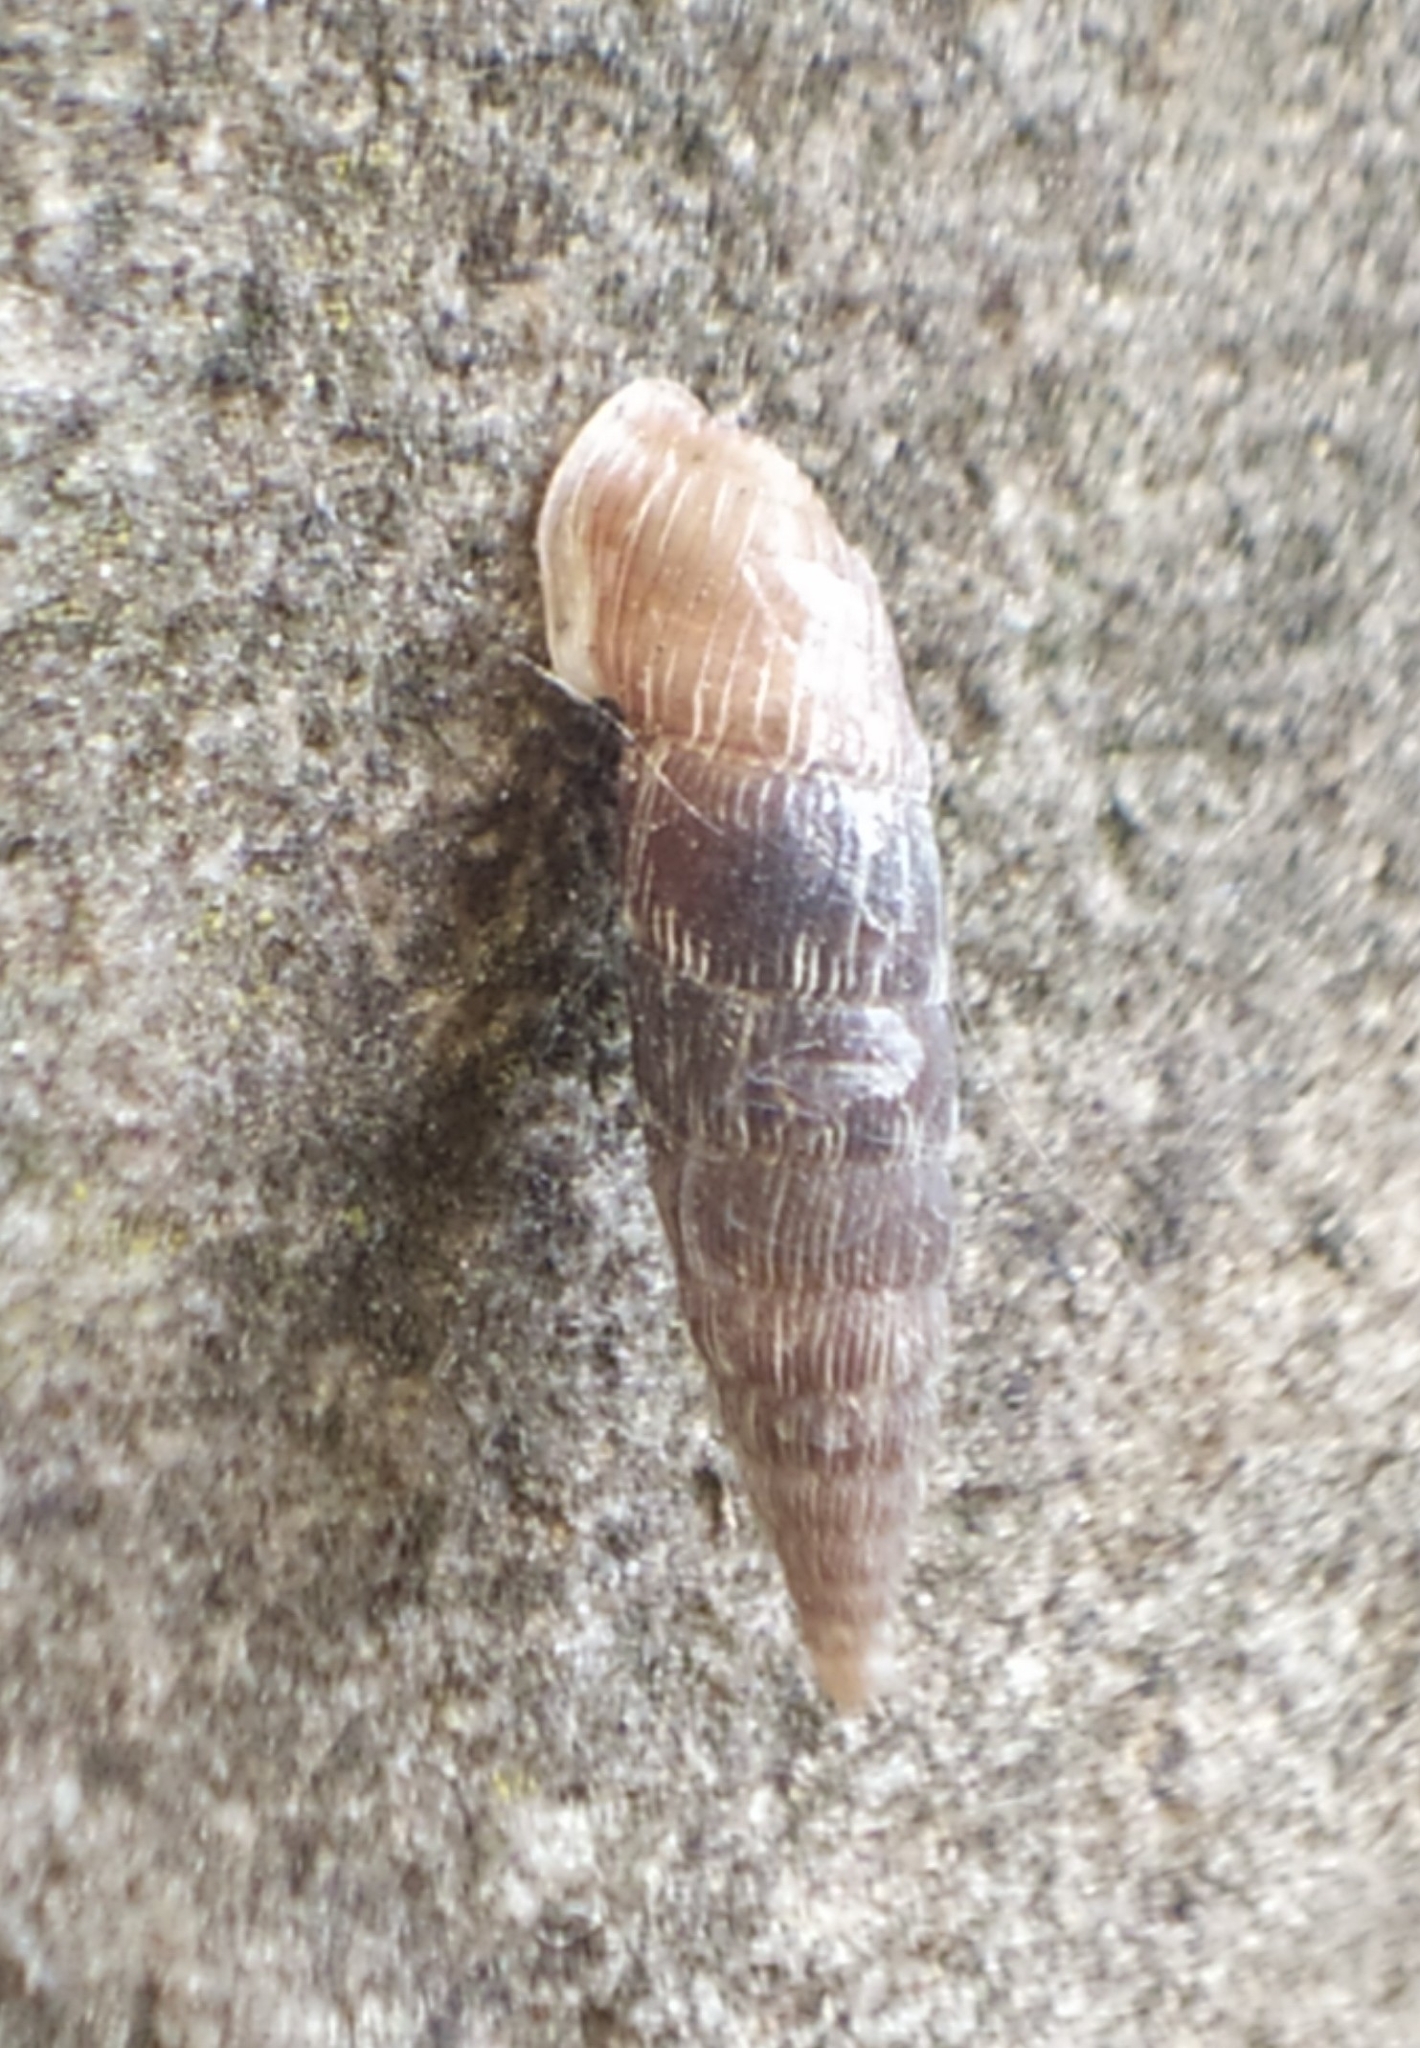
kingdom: Animalia
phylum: Mollusca
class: Gastropoda
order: Stylommatophora
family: Clausiliidae
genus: Laciniaria
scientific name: Laciniaria plicata
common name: Single-lipped door snail
